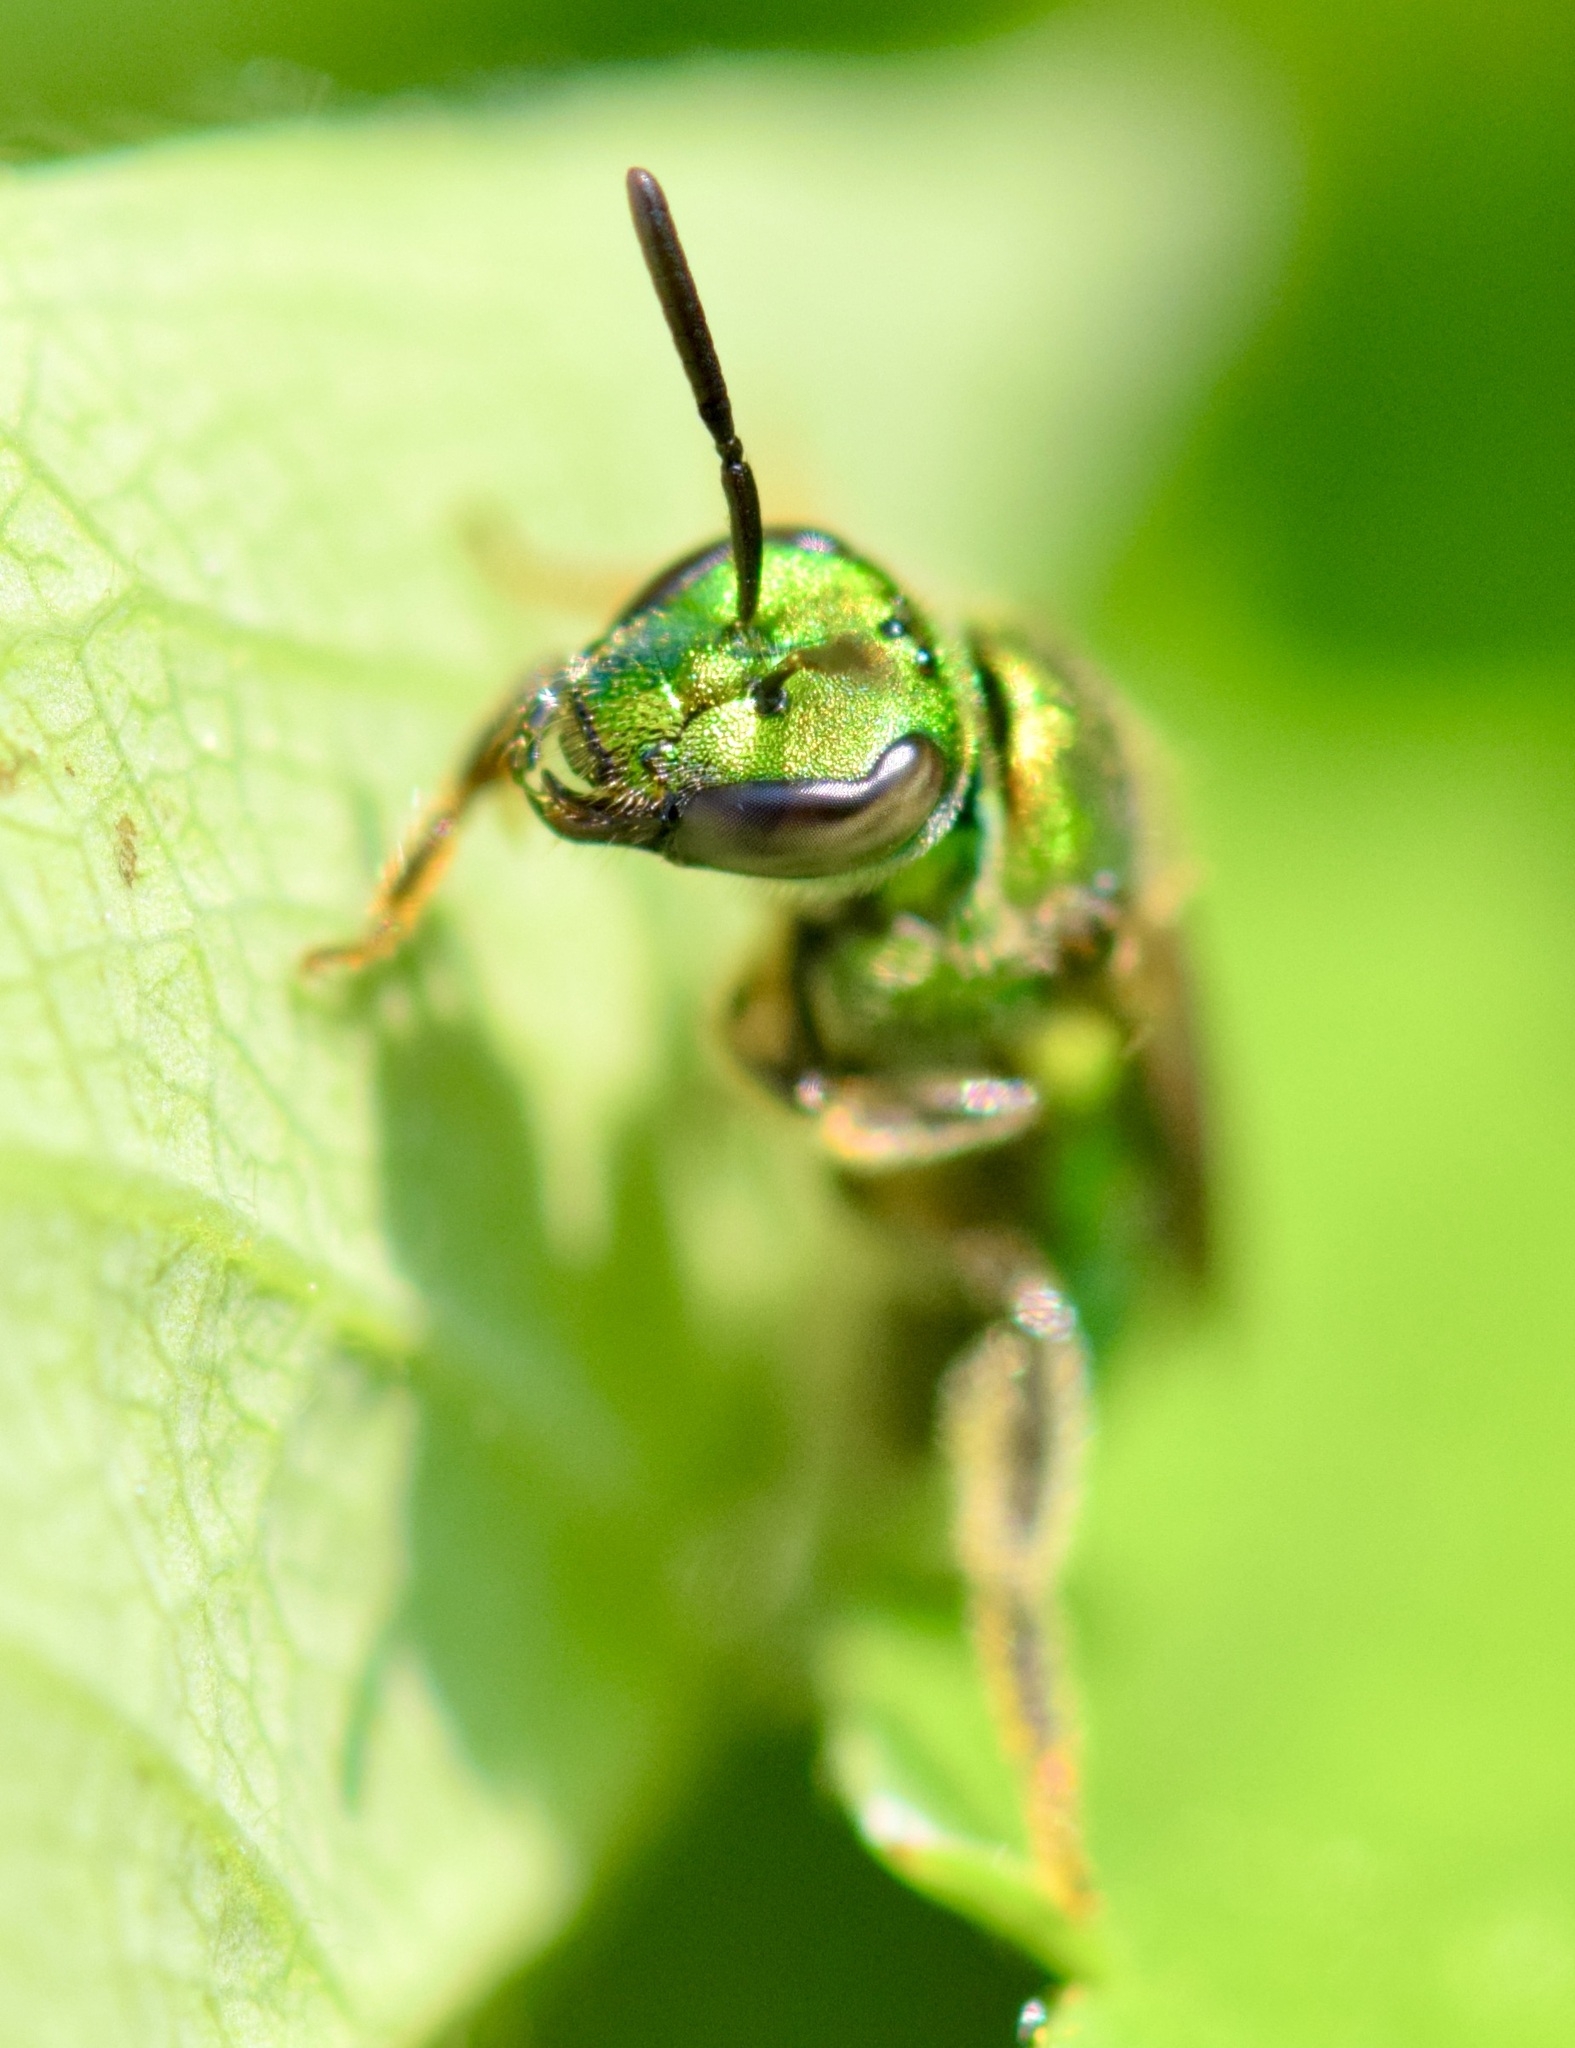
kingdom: Animalia
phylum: Arthropoda
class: Insecta
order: Hymenoptera
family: Halictidae
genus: Augochlora
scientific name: Augochlora pura
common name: Pure green sweat bee
